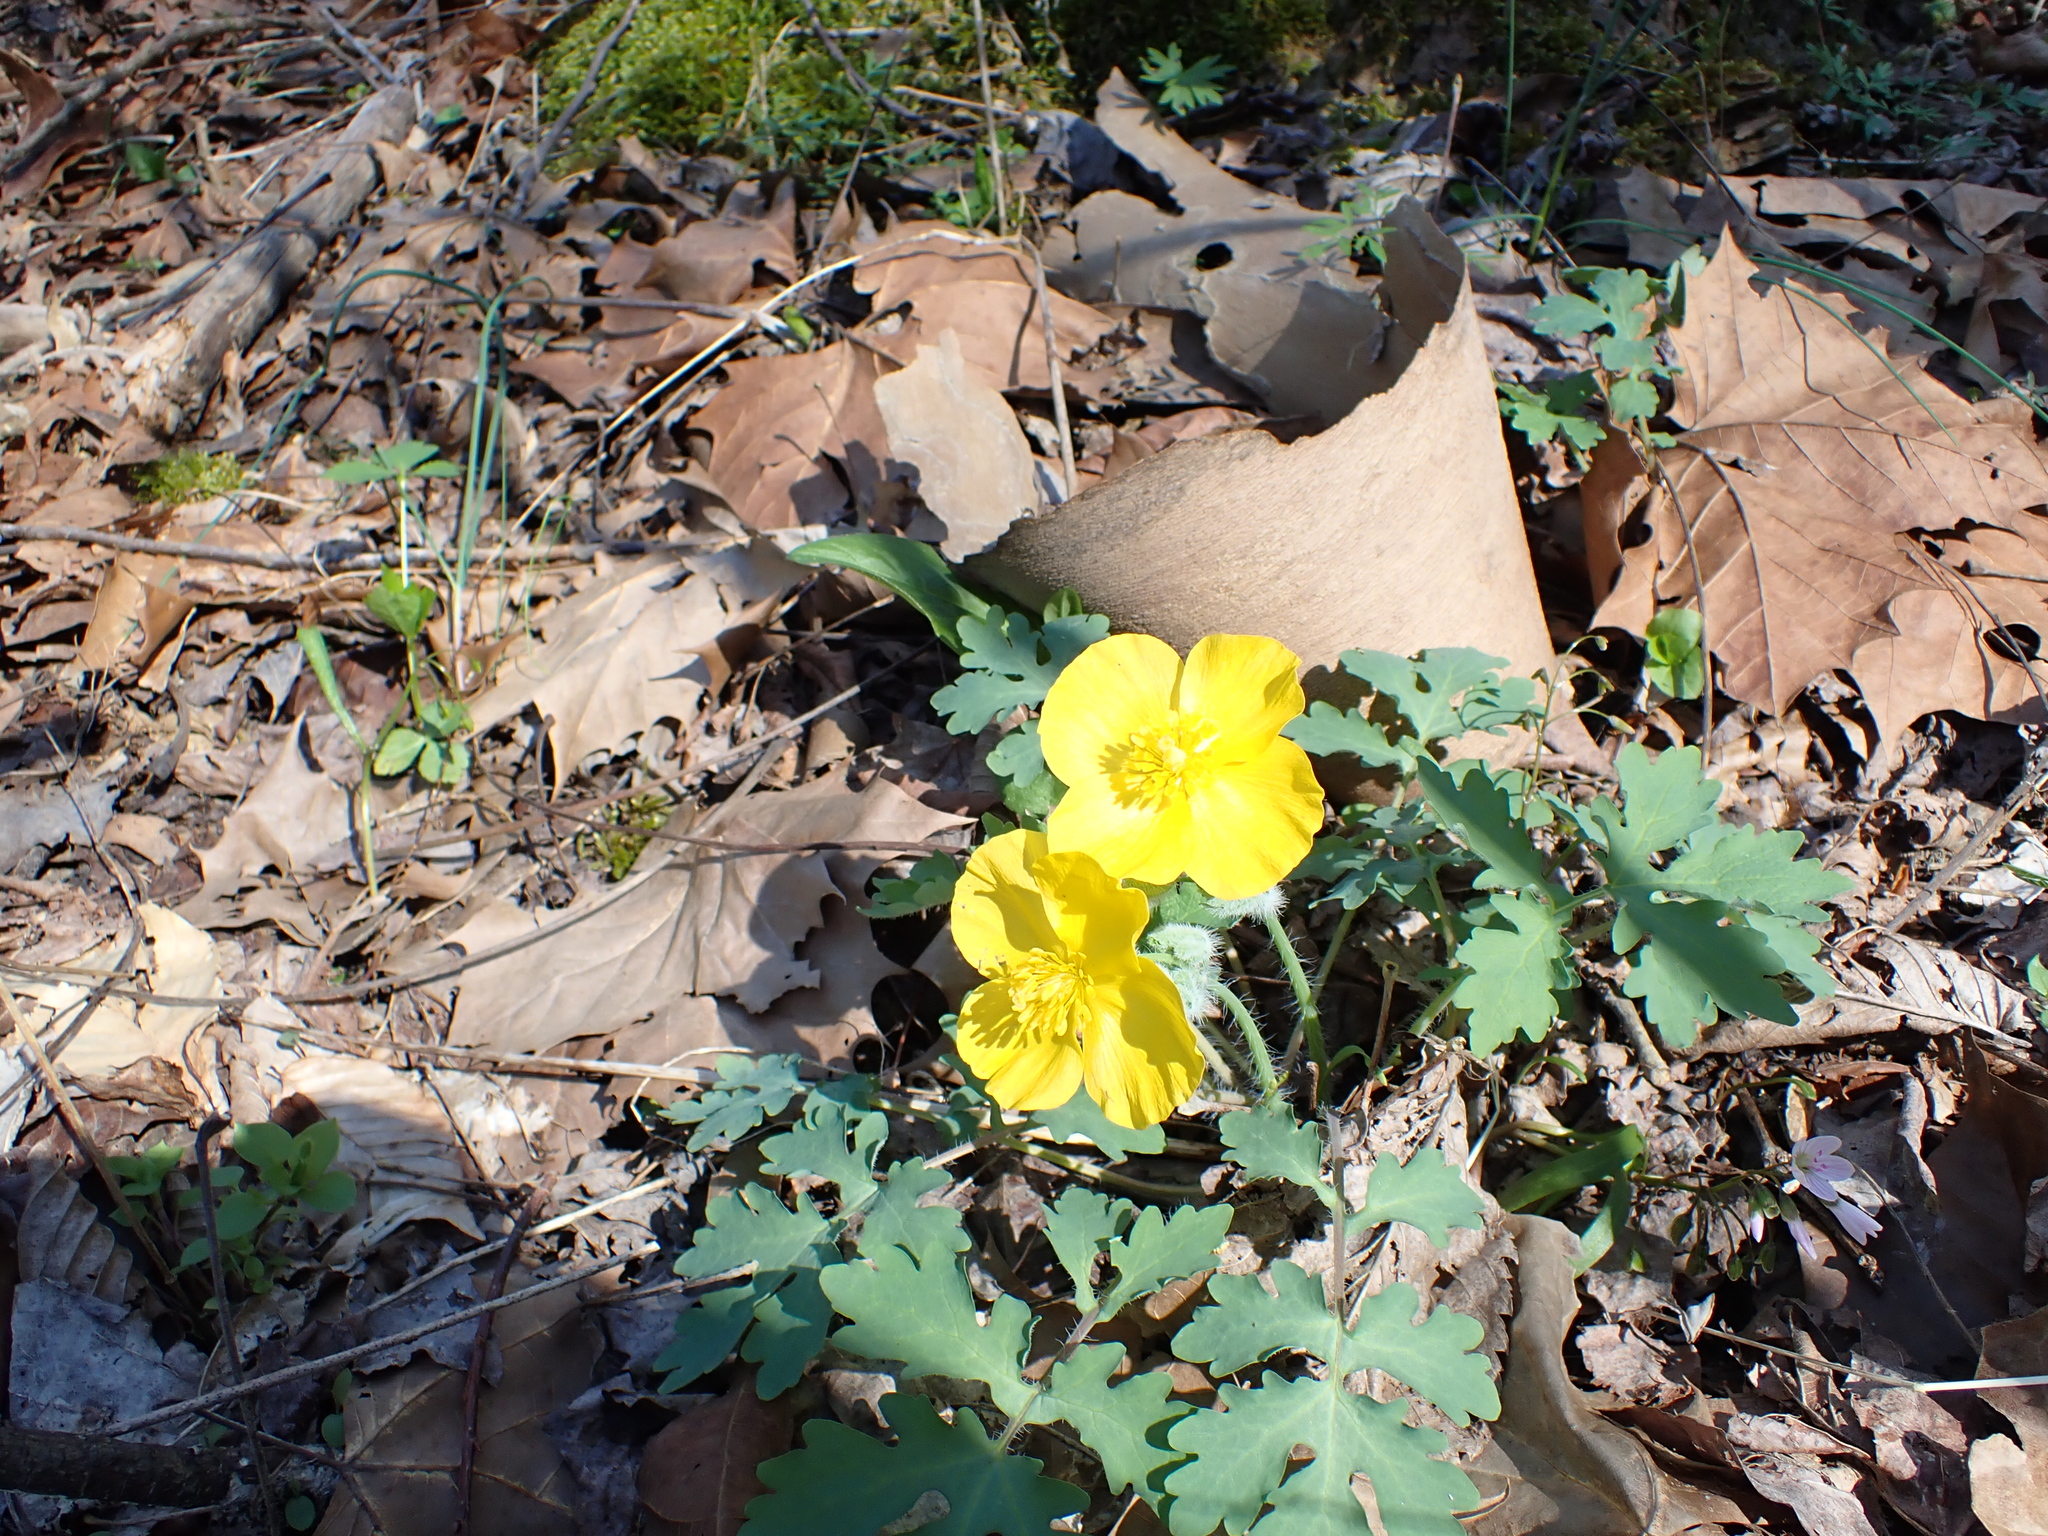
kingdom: Plantae
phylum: Tracheophyta
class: Magnoliopsida
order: Ranunculales
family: Papaveraceae
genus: Stylophorum
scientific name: Stylophorum diphyllum
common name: Celandine poppy
